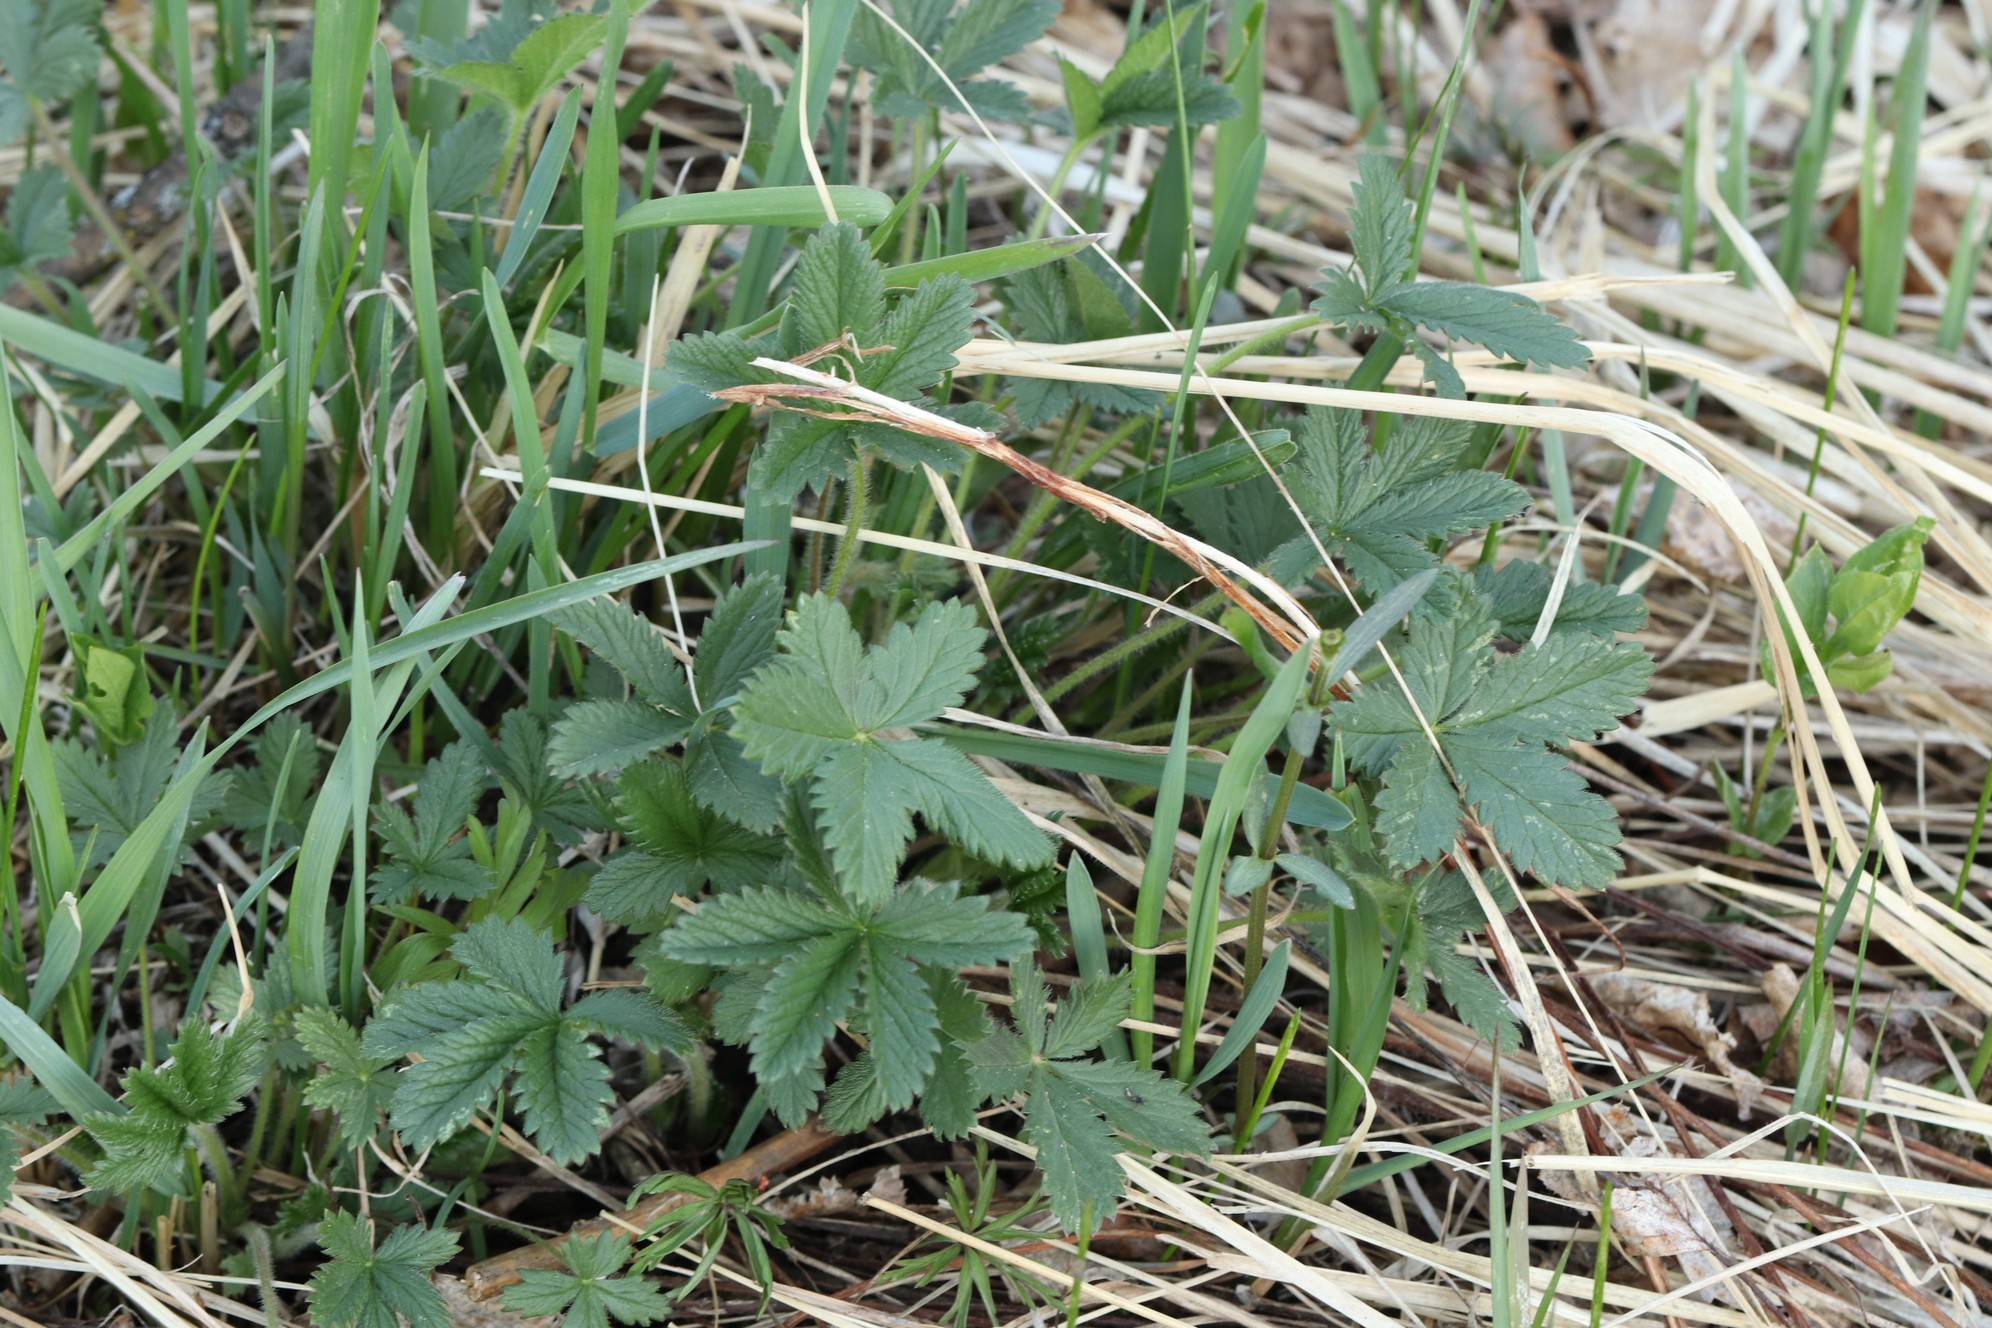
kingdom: Plantae
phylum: Tracheophyta
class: Magnoliopsida
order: Rosales
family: Rosaceae
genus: Potentilla
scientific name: Potentilla chrysantha
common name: Thuringian cinquefoil
